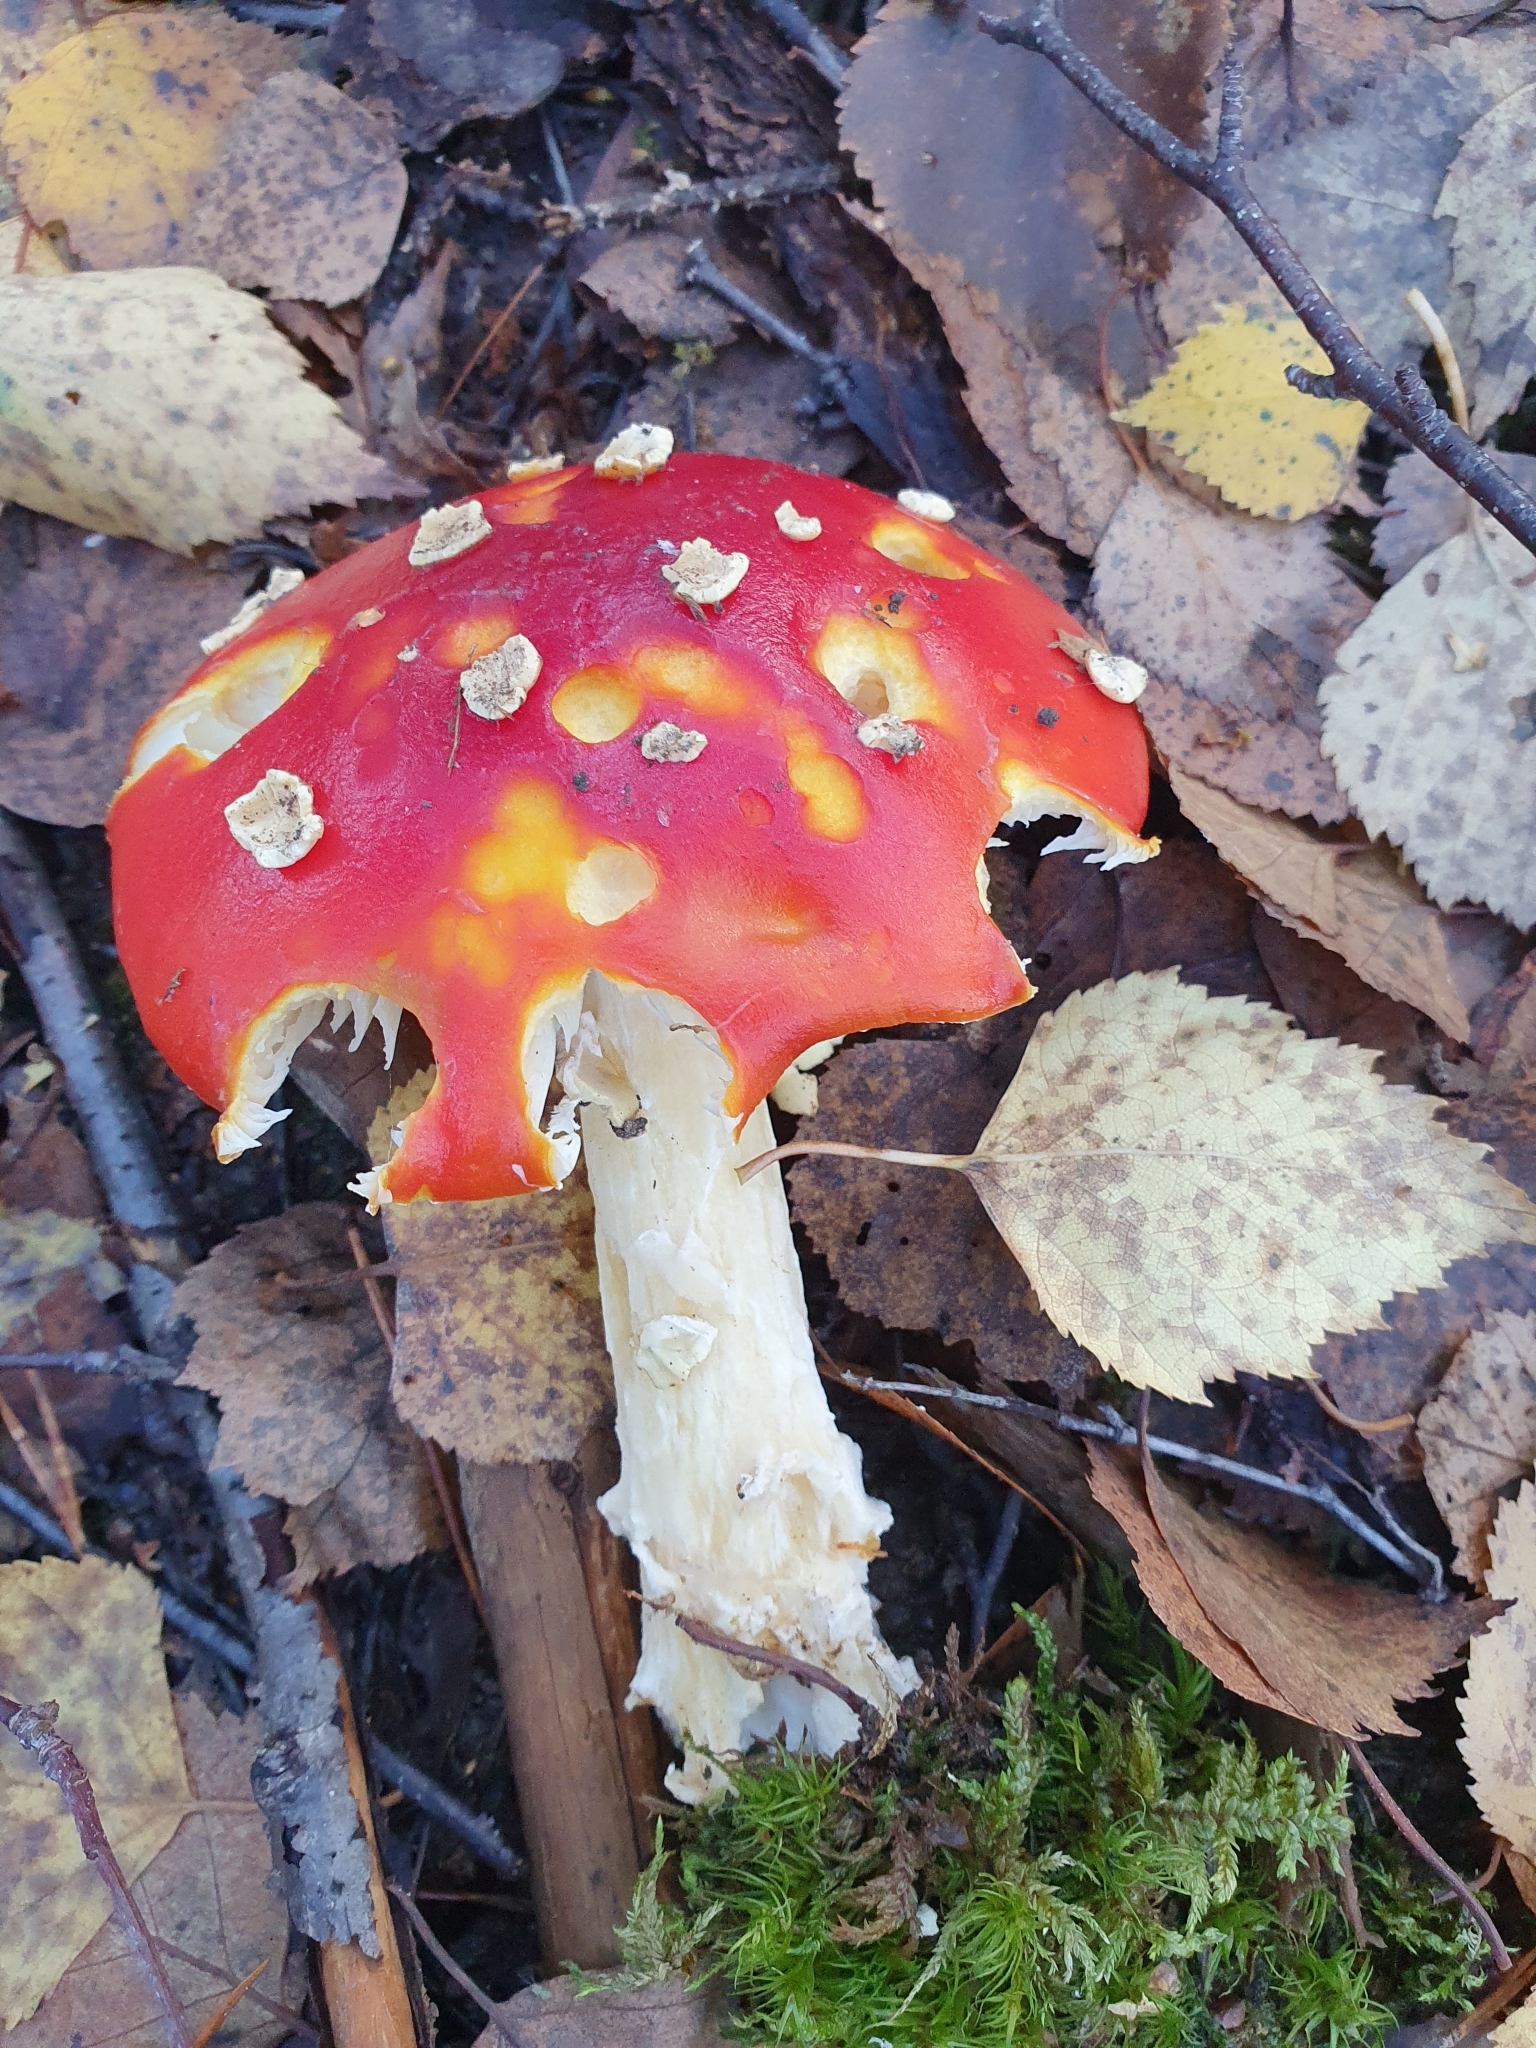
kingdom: Fungi
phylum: Basidiomycota
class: Agaricomycetes
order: Agaricales
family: Amanitaceae
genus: Amanita
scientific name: Amanita muscaria
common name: Fly agaric
